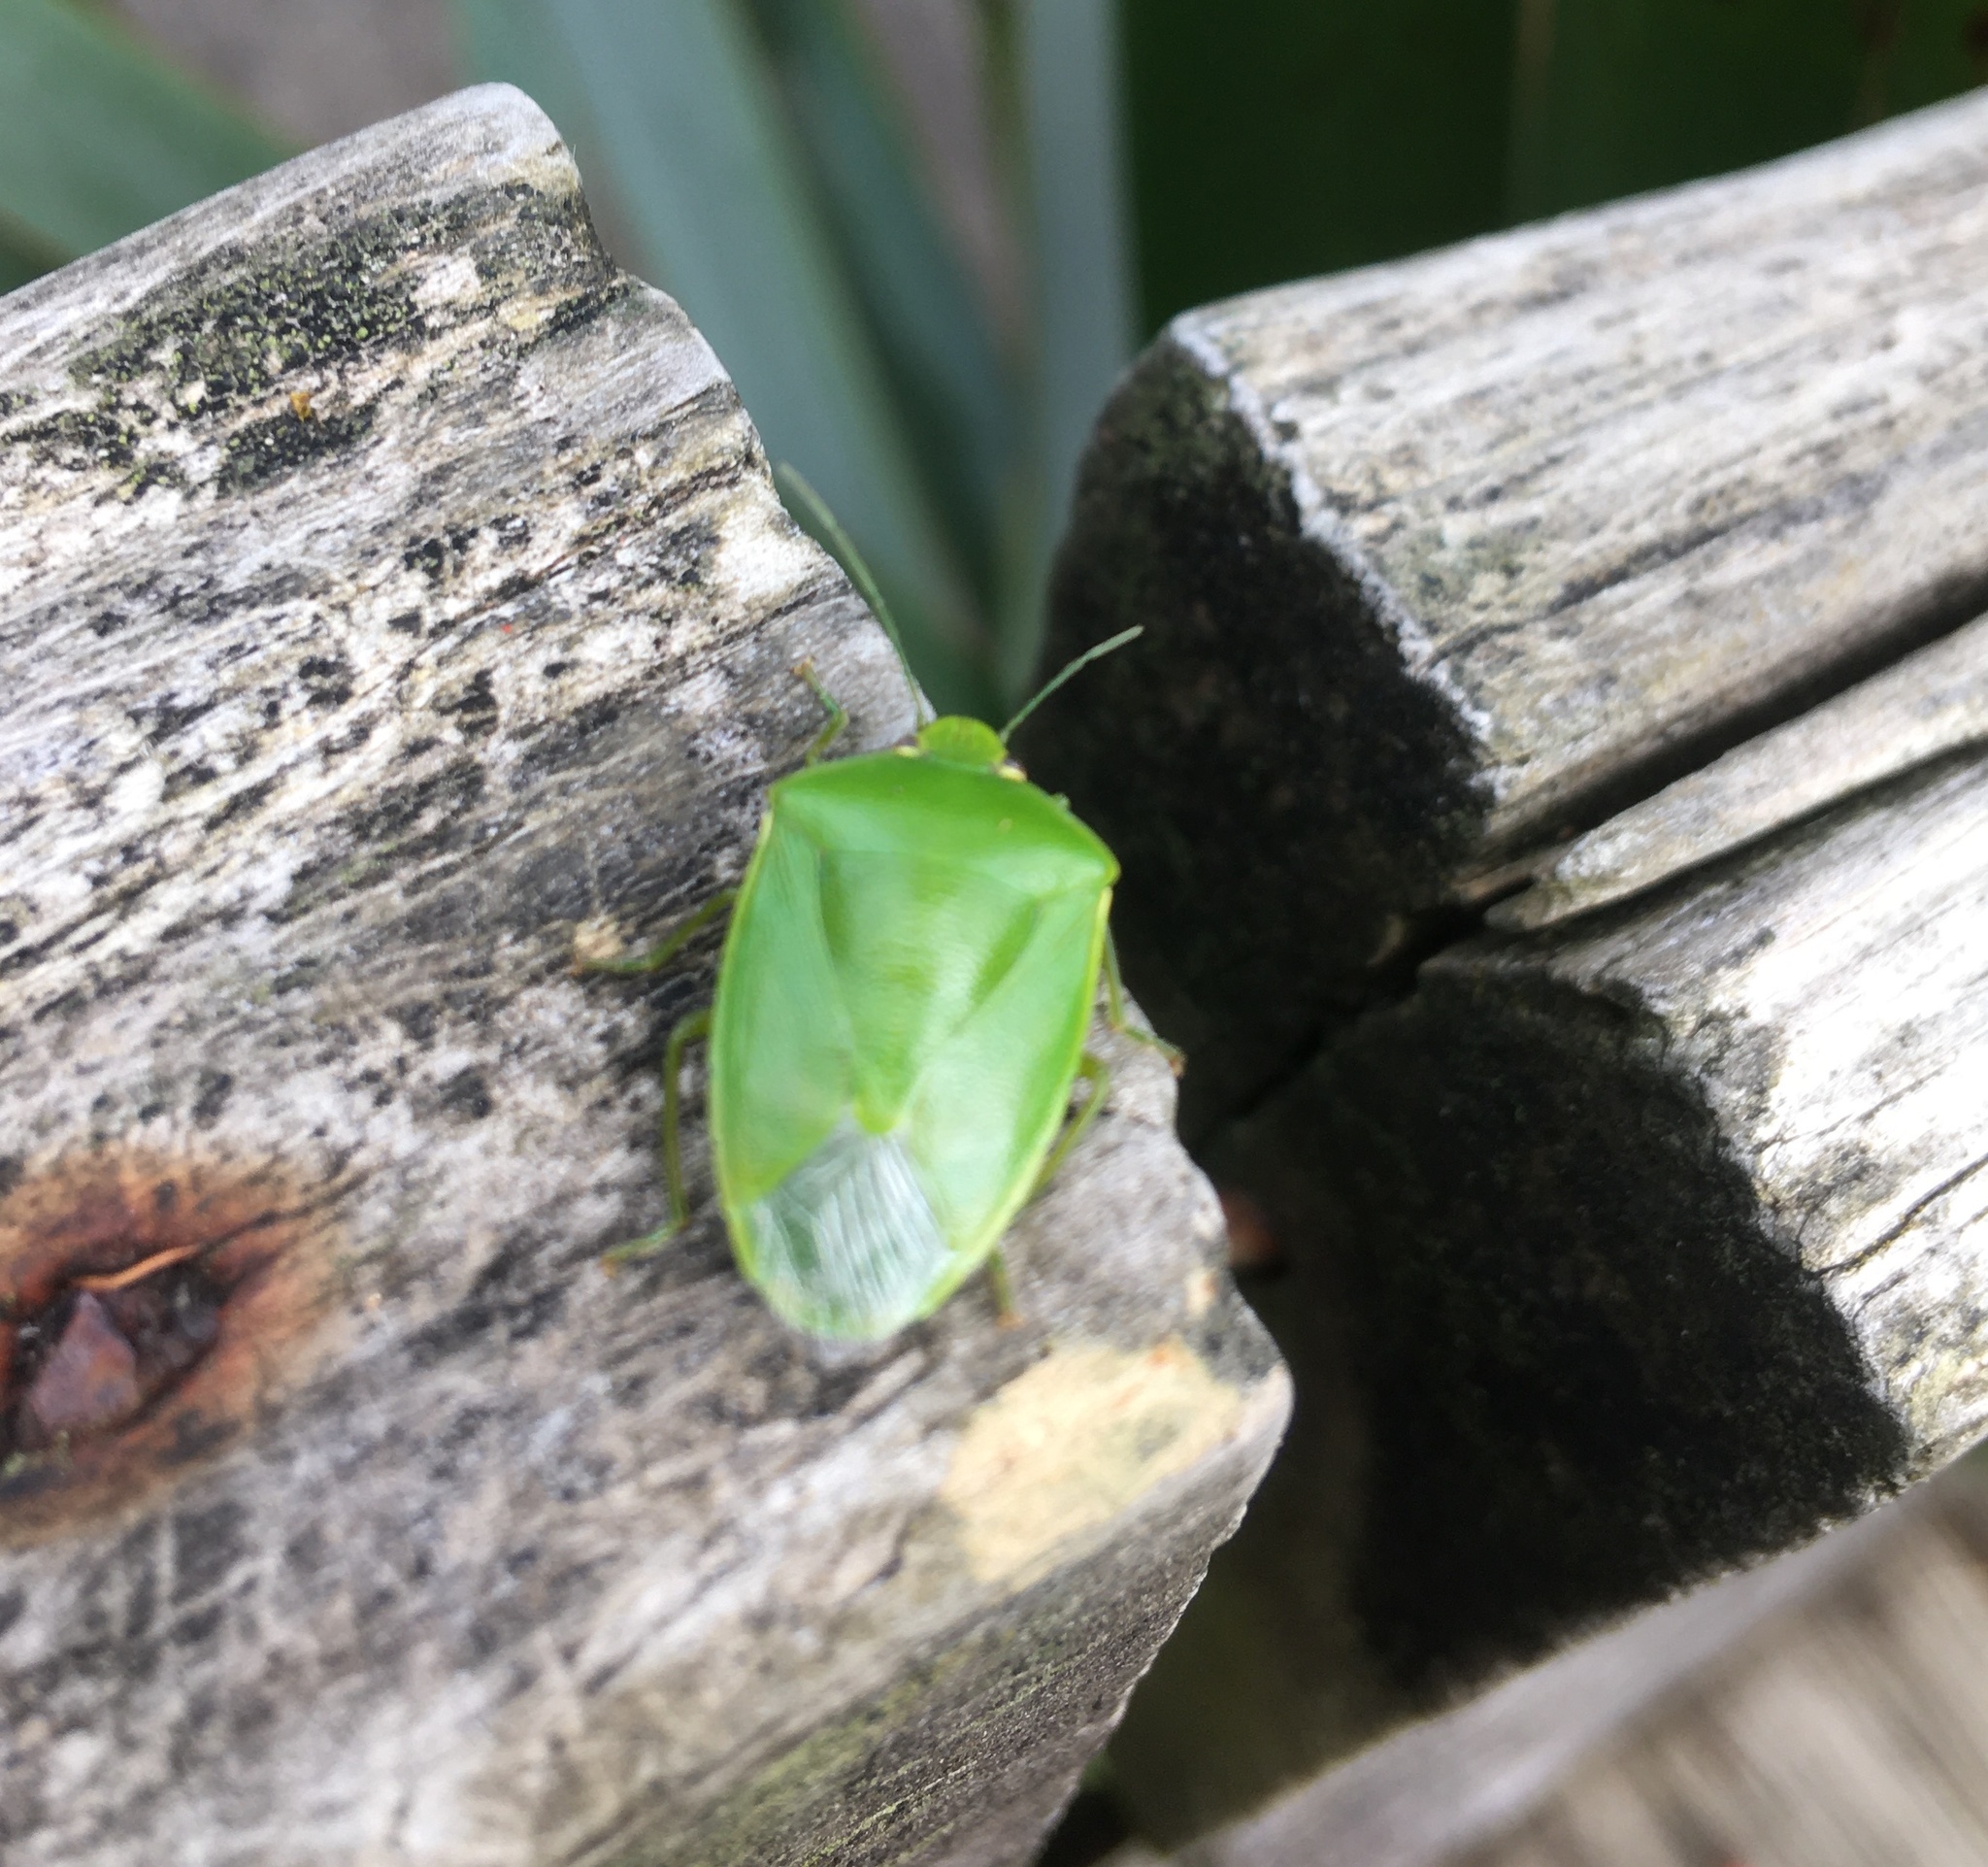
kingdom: Animalia
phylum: Arthropoda
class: Insecta
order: Hemiptera
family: Pentatomidae
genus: Glaucias
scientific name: Glaucias amyota
